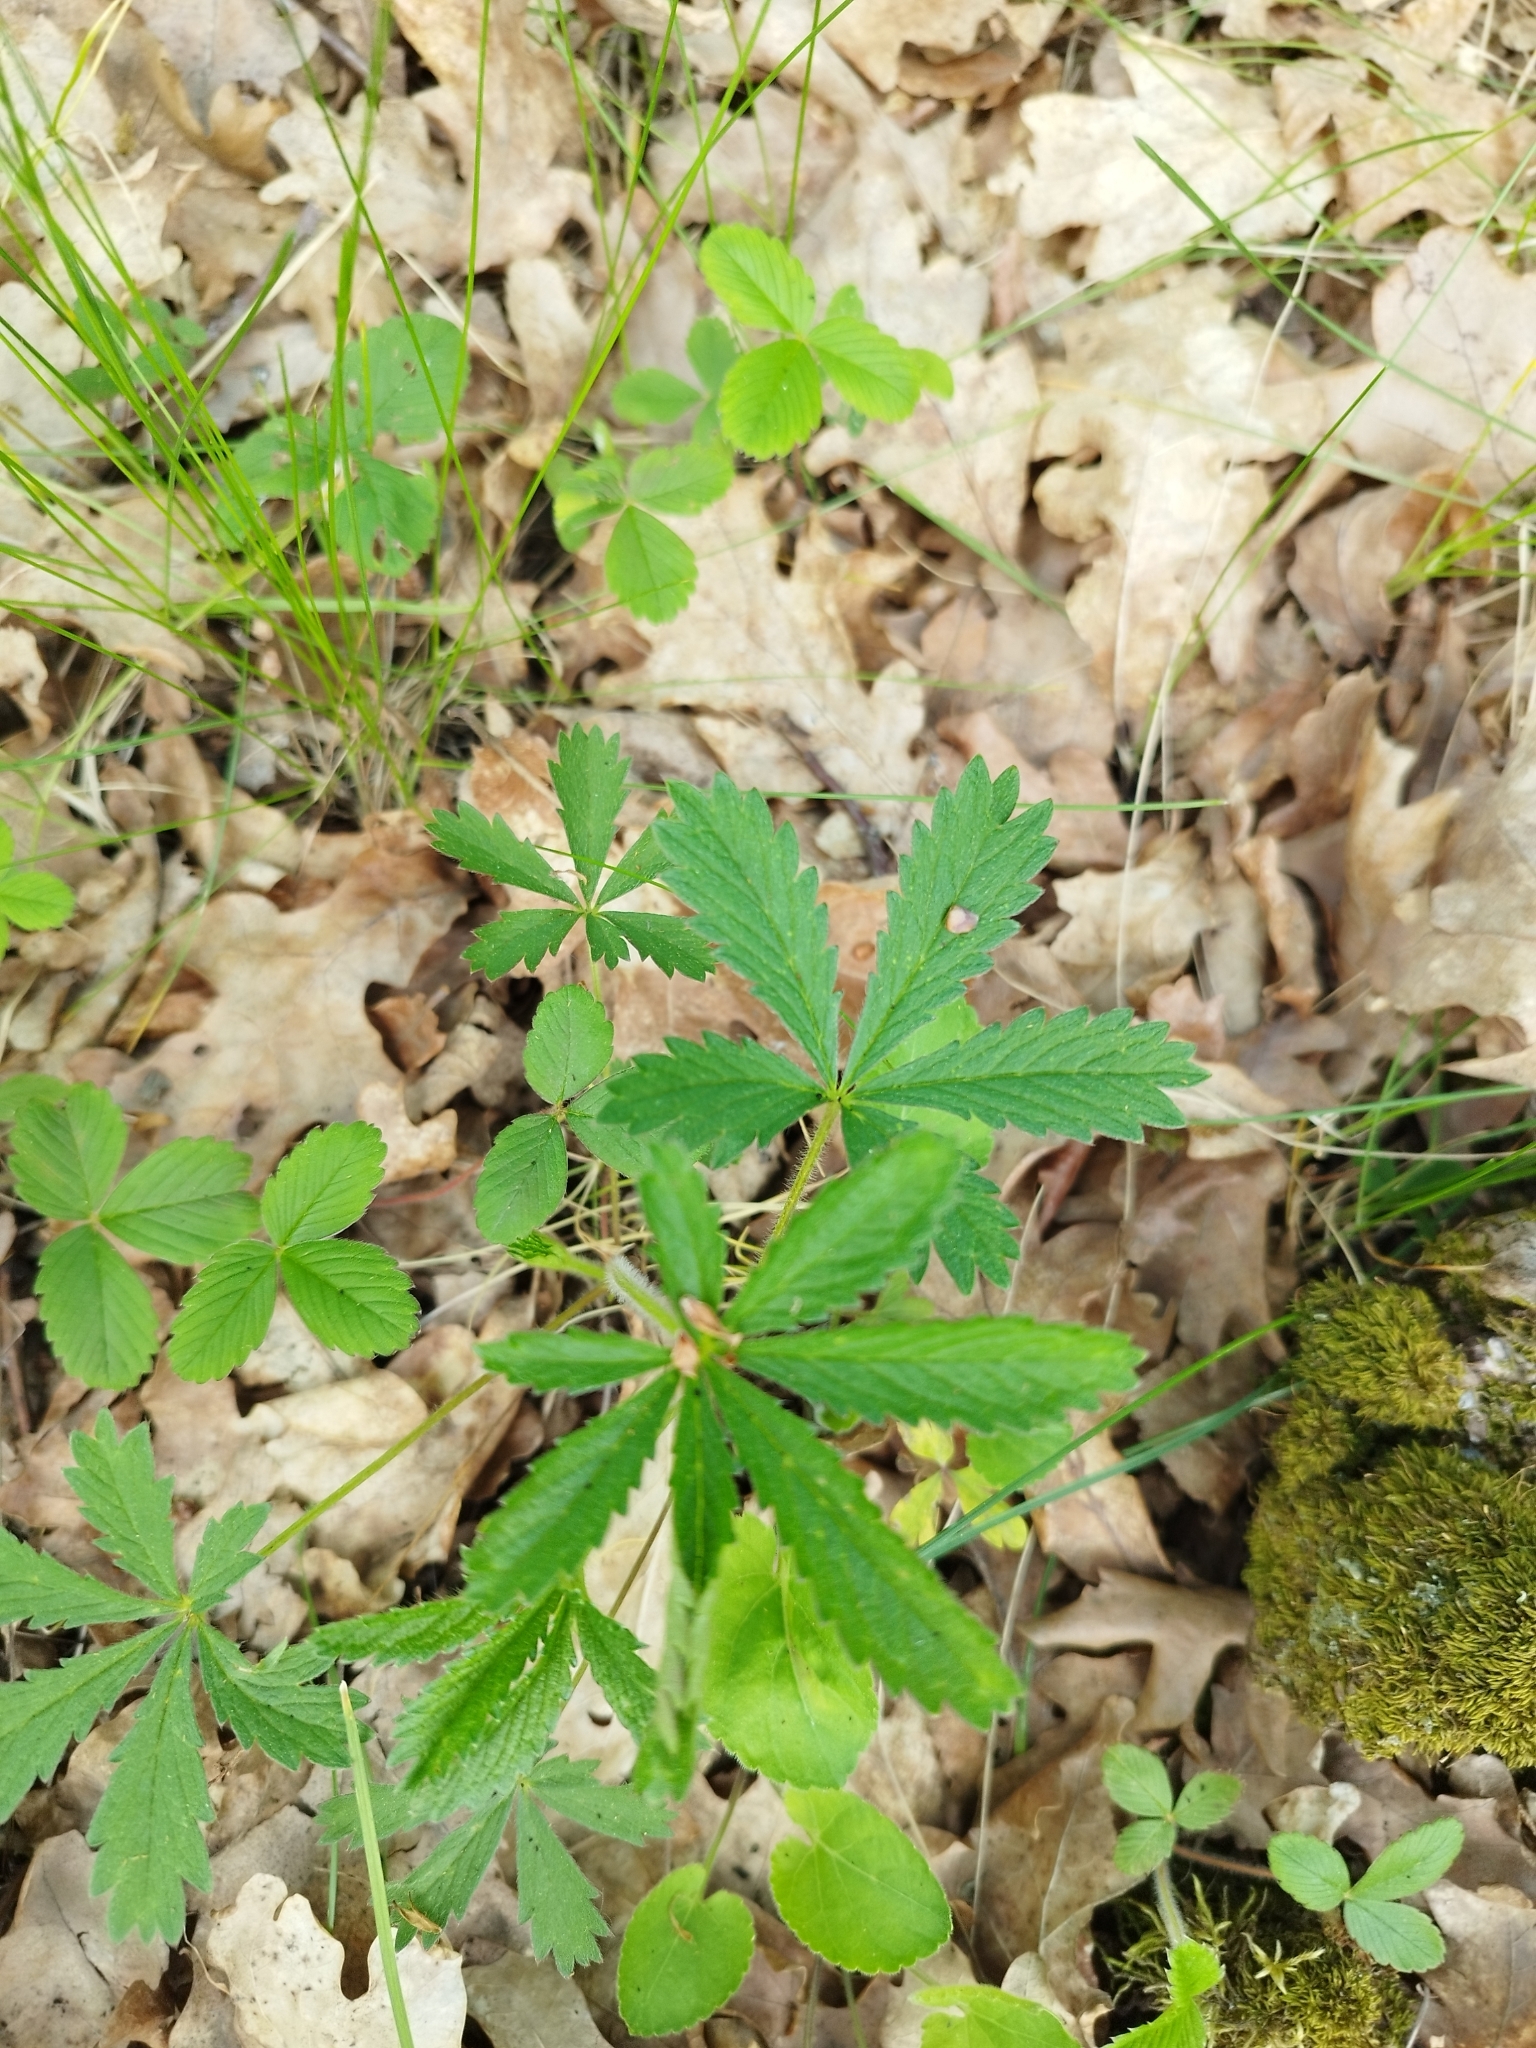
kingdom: Plantae
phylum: Tracheophyta
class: Magnoliopsida
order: Rosales
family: Rosaceae
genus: Potentilla
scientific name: Potentilla thuringiaca
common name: European cinquefoil
